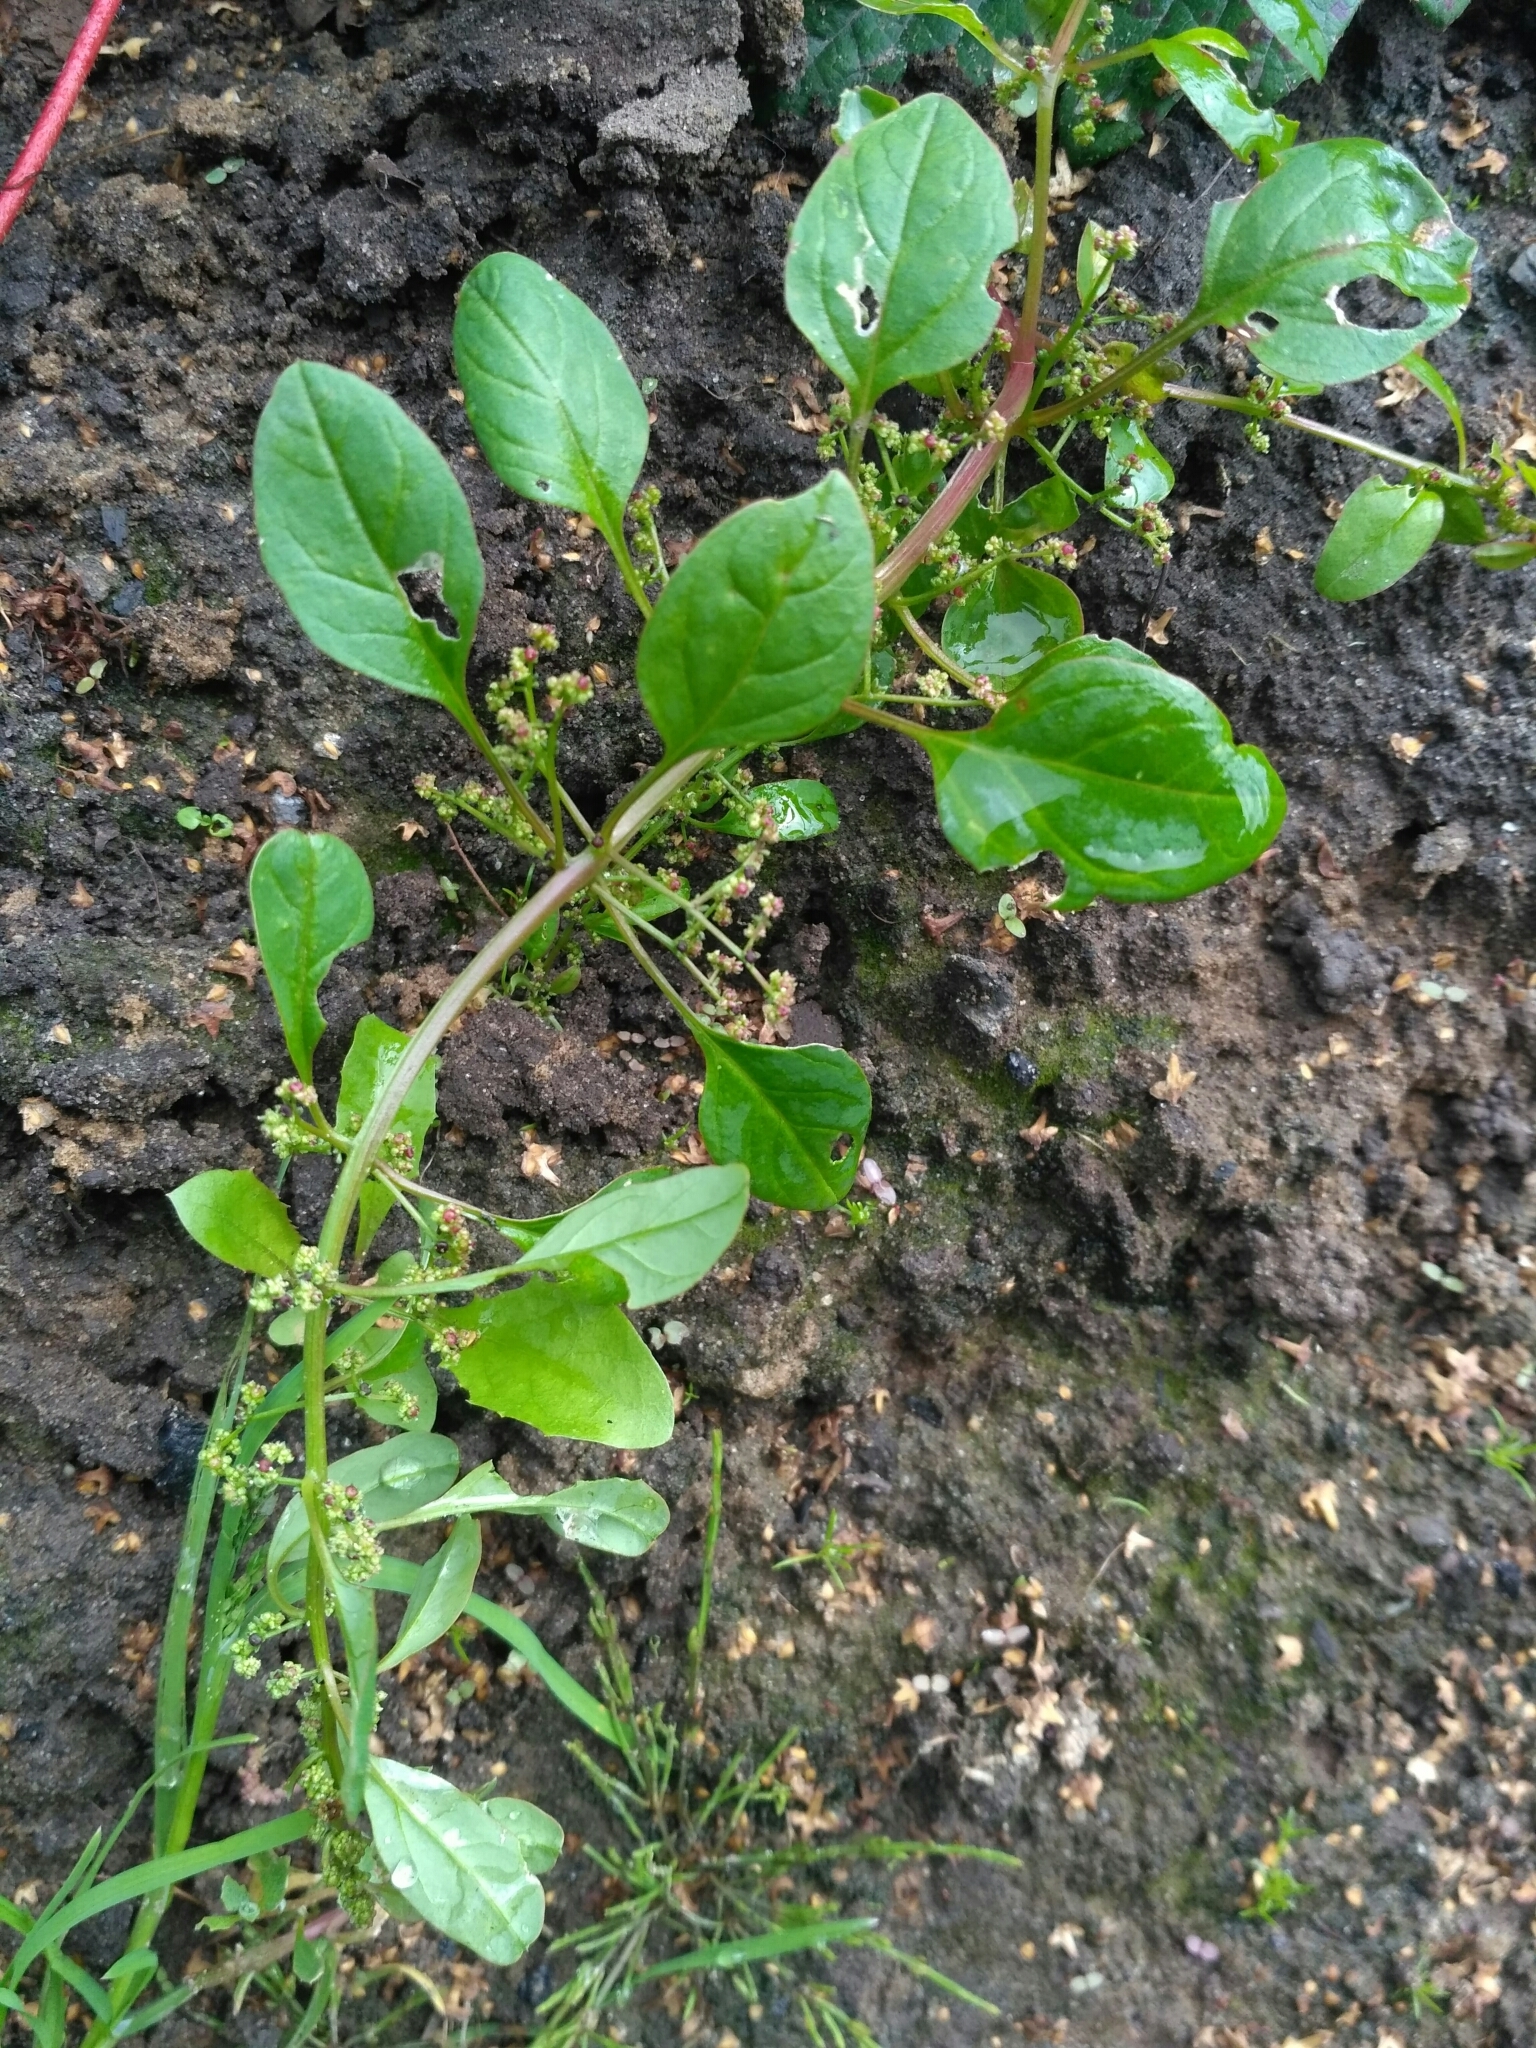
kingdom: Plantae
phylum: Tracheophyta
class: Magnoliopsida
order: Caryophyllales
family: Amaranthaceae
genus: Lipandra
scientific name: Lipandra polysperma
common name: Many-seed goosefoot
